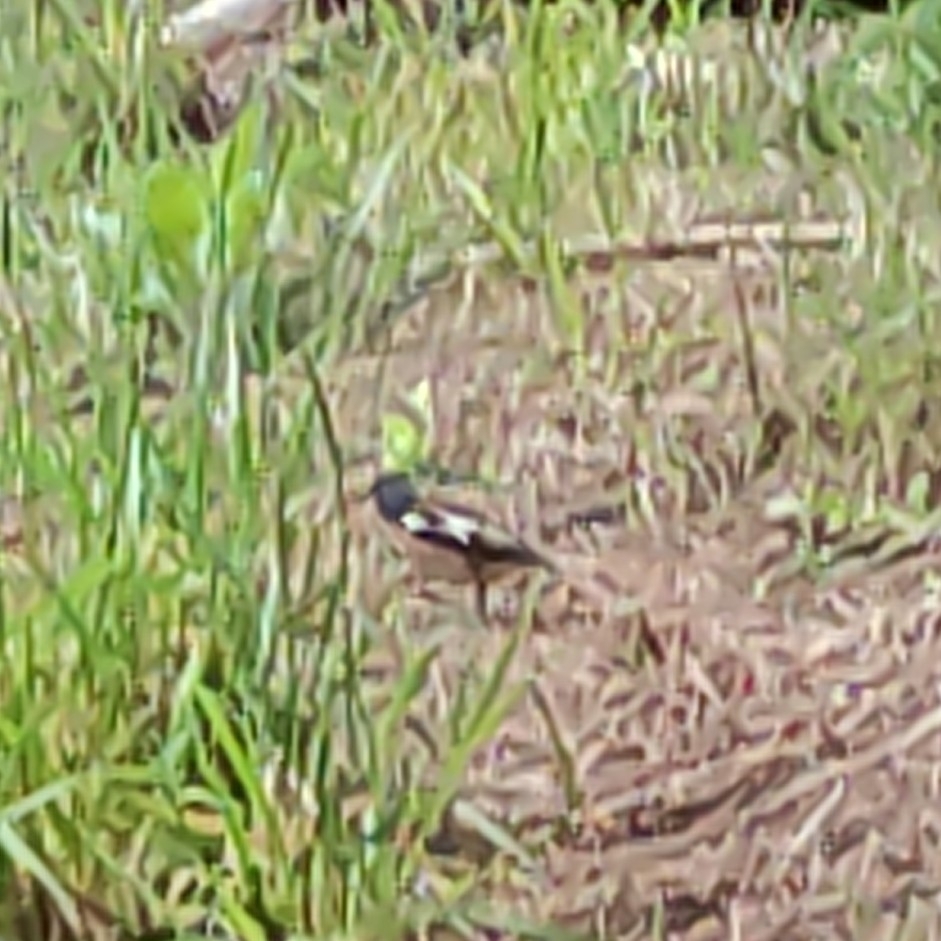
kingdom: Animalia
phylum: Chordata
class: Aves
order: Passeriformes
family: Fringillidae
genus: Fringilla
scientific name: Fringilla coelebs
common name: Common chaffinch
